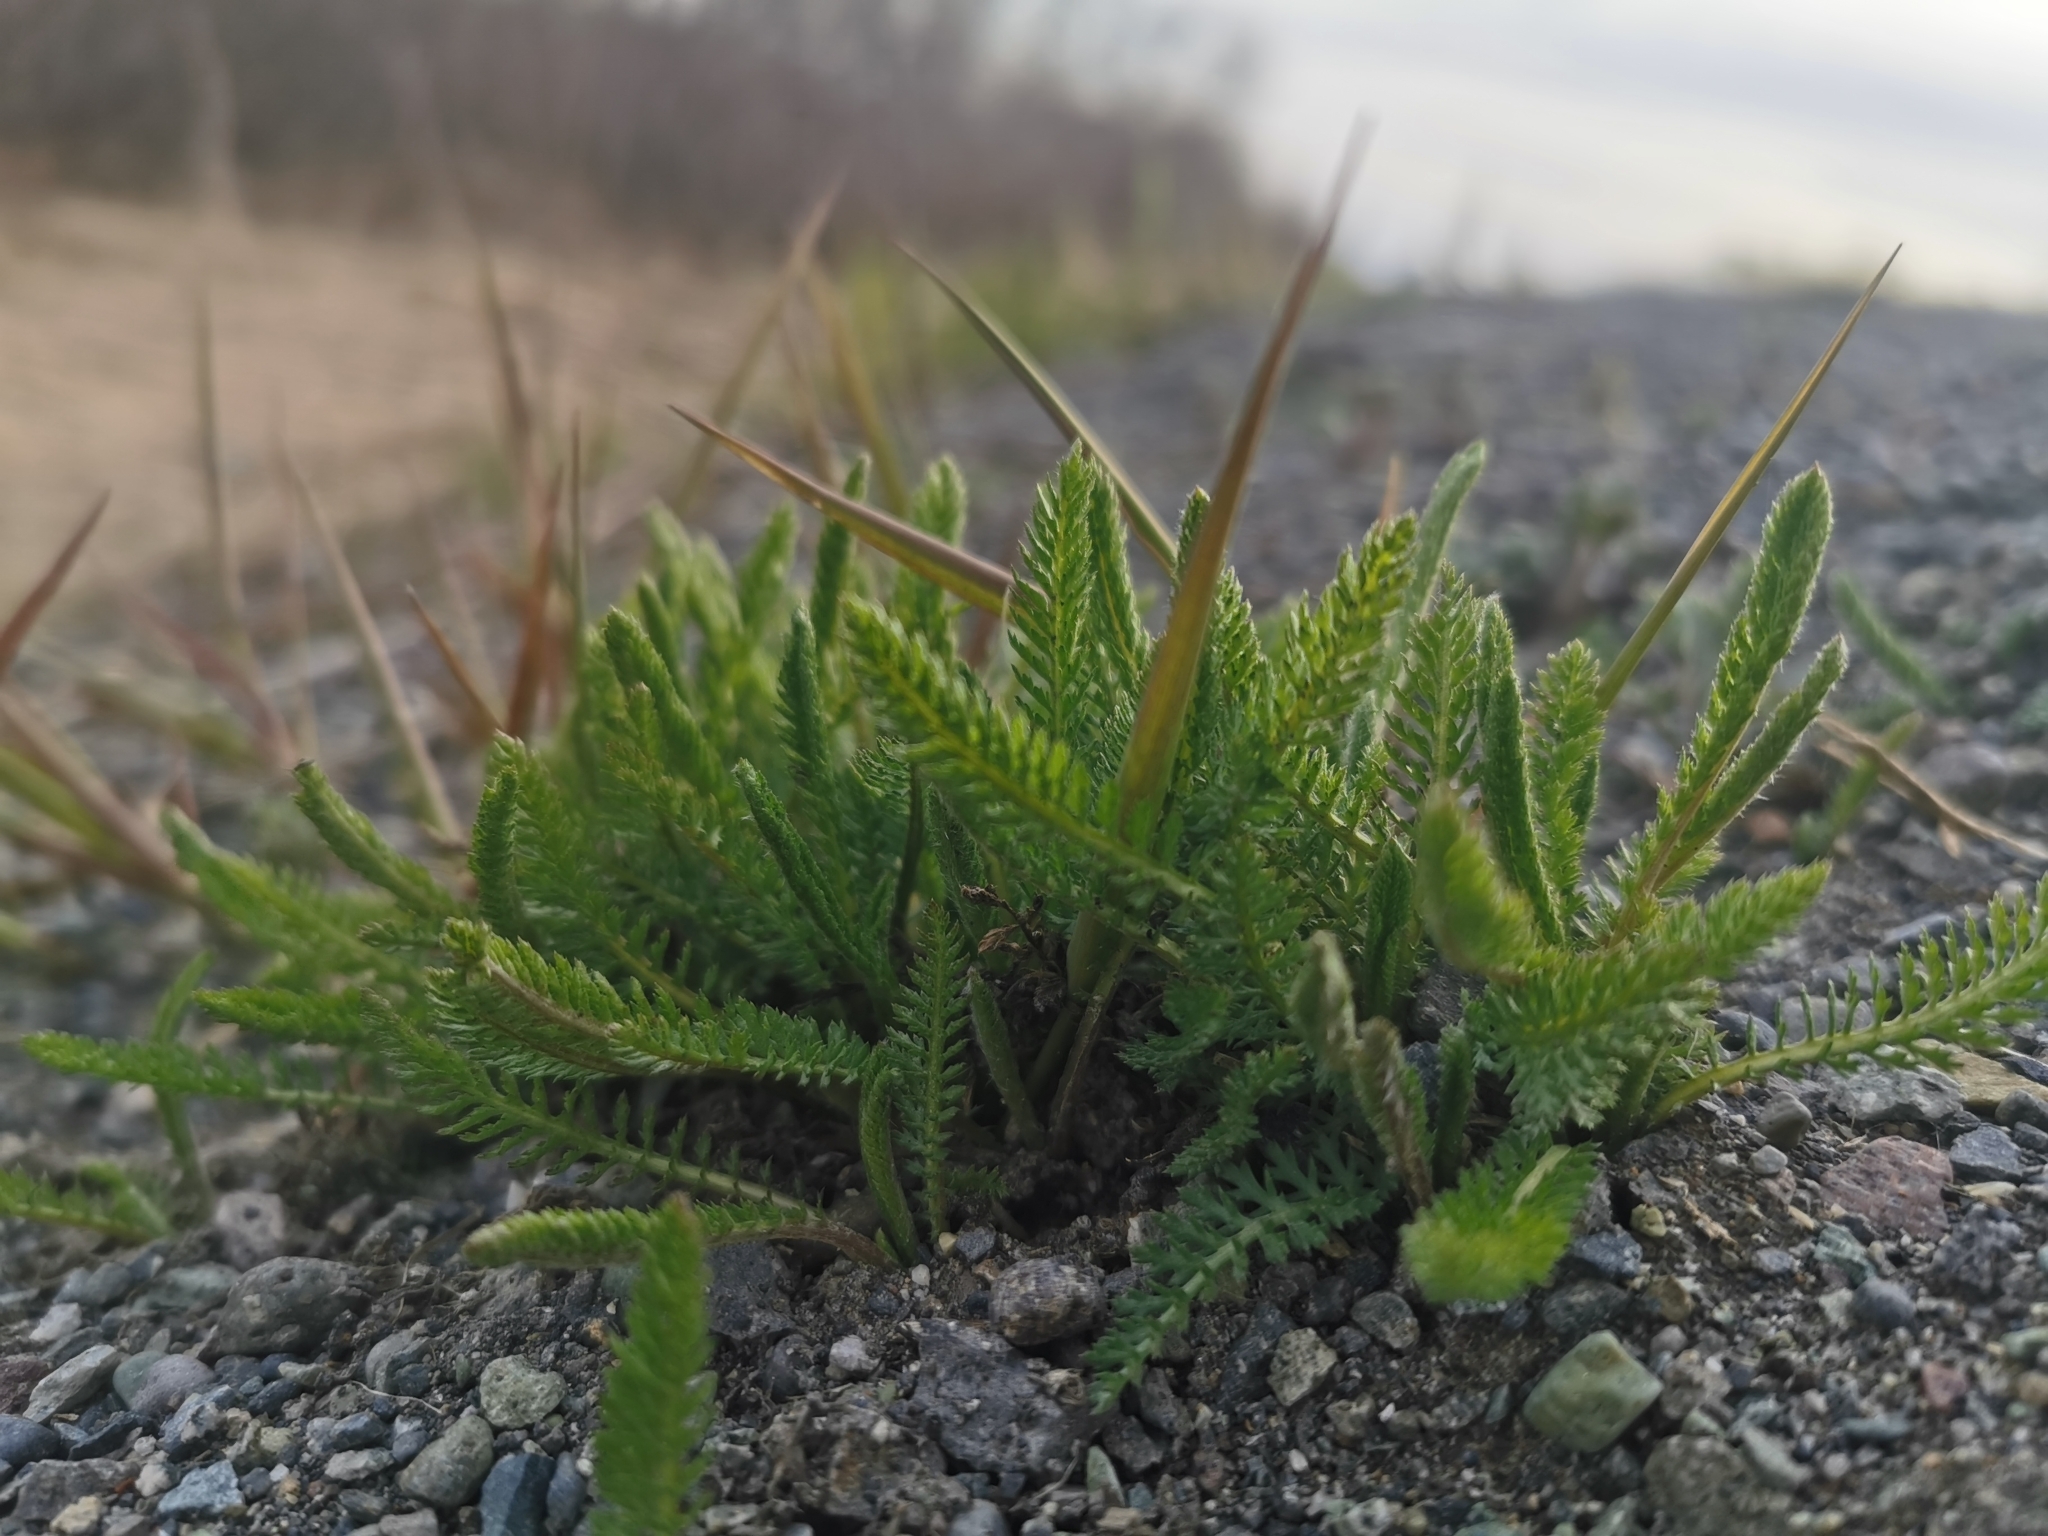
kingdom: Plantae
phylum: Tracheophyta
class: Magnoliopsida
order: Asterales
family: Asteraceae
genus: Achillea
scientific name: Achillea millefolium
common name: Yarrow
